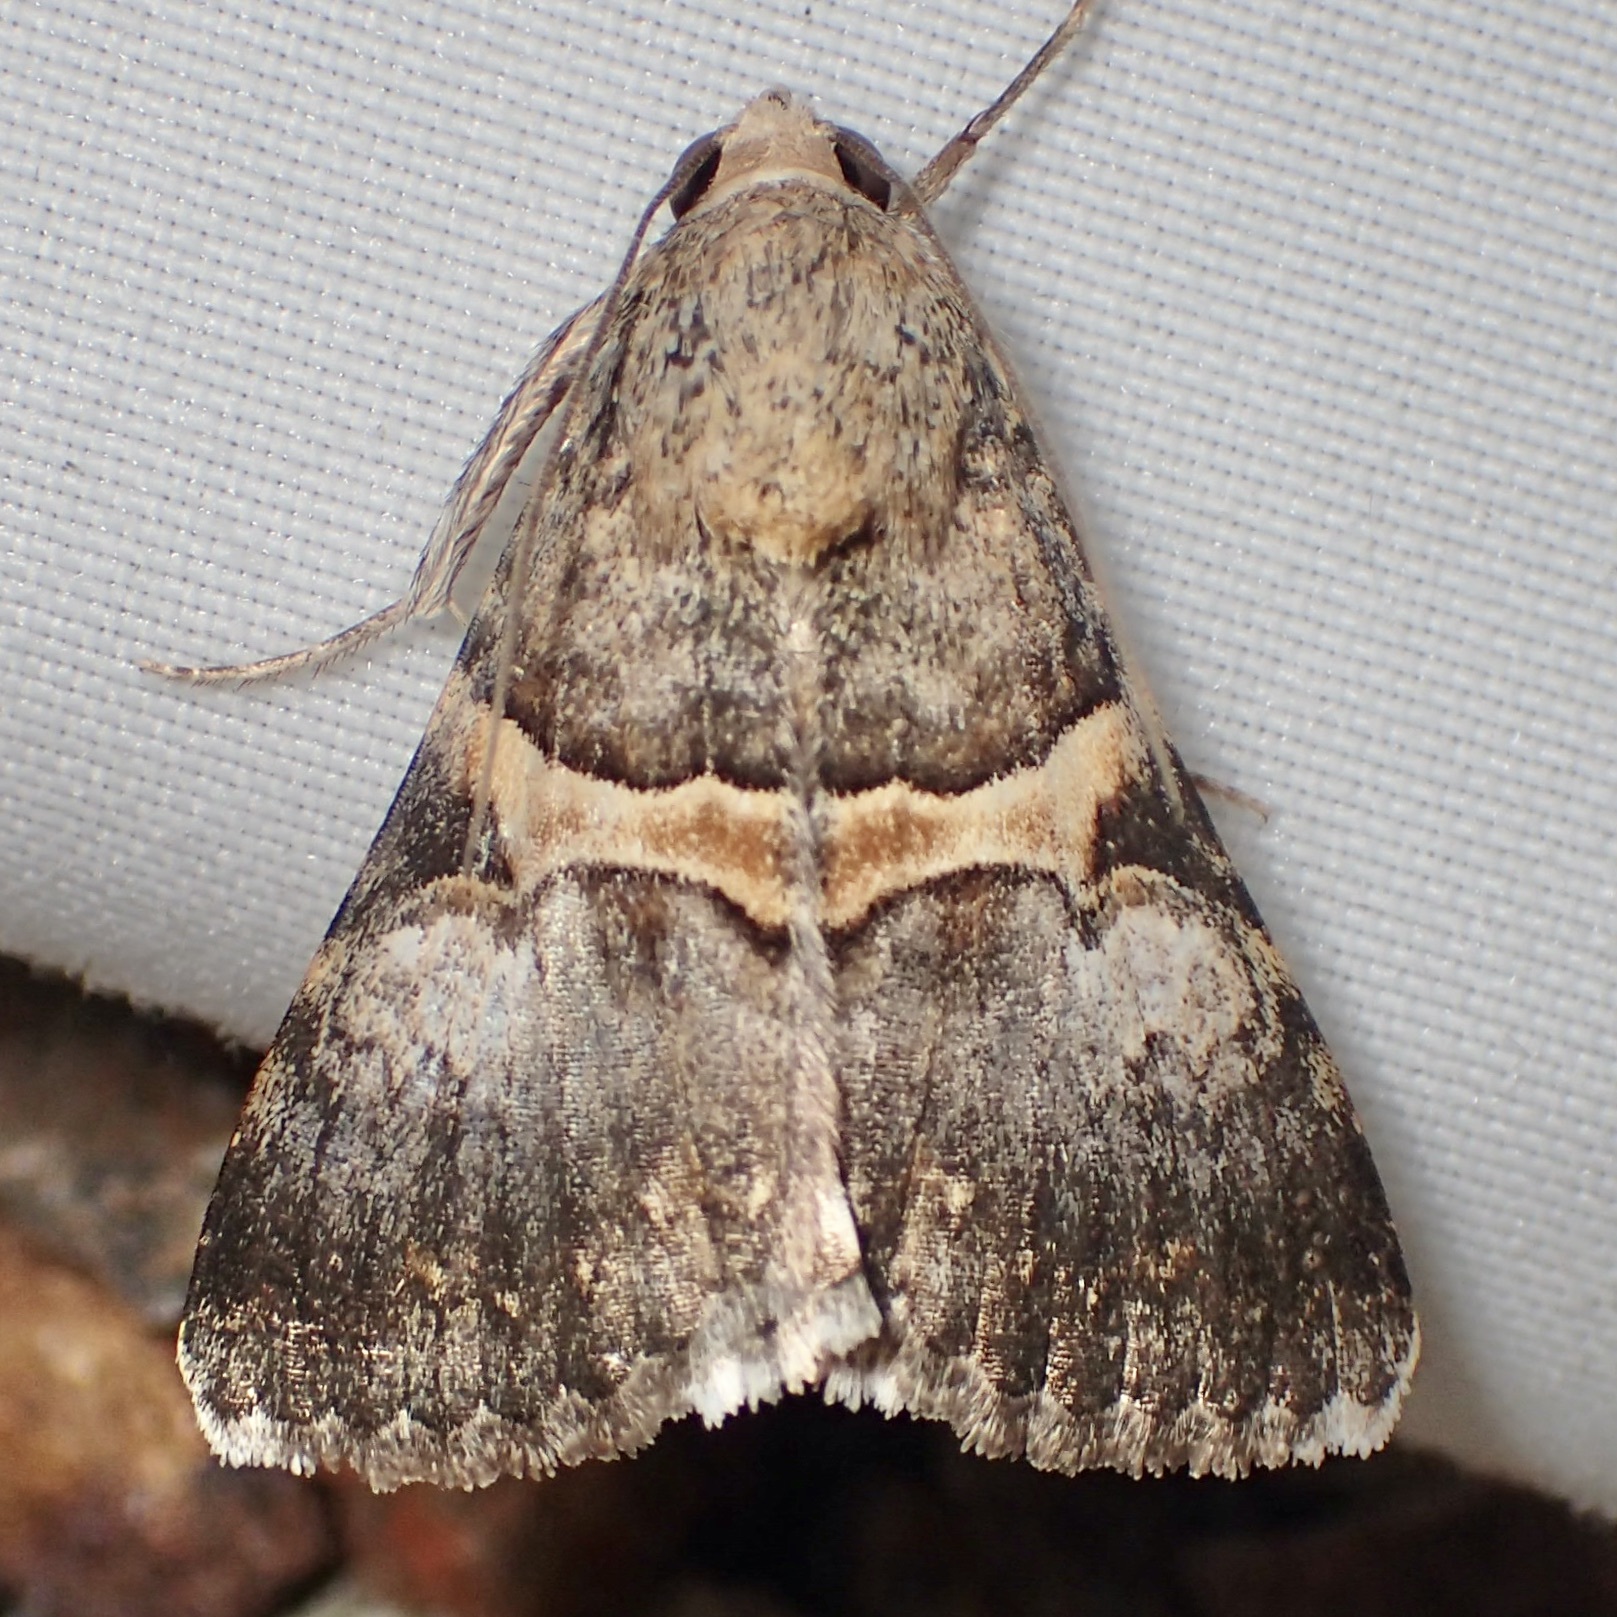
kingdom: Animalia
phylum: Arthropoda
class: Insecta
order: Lepidoptera
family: Erebidae
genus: Melipotis
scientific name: Melipotis jucunda
